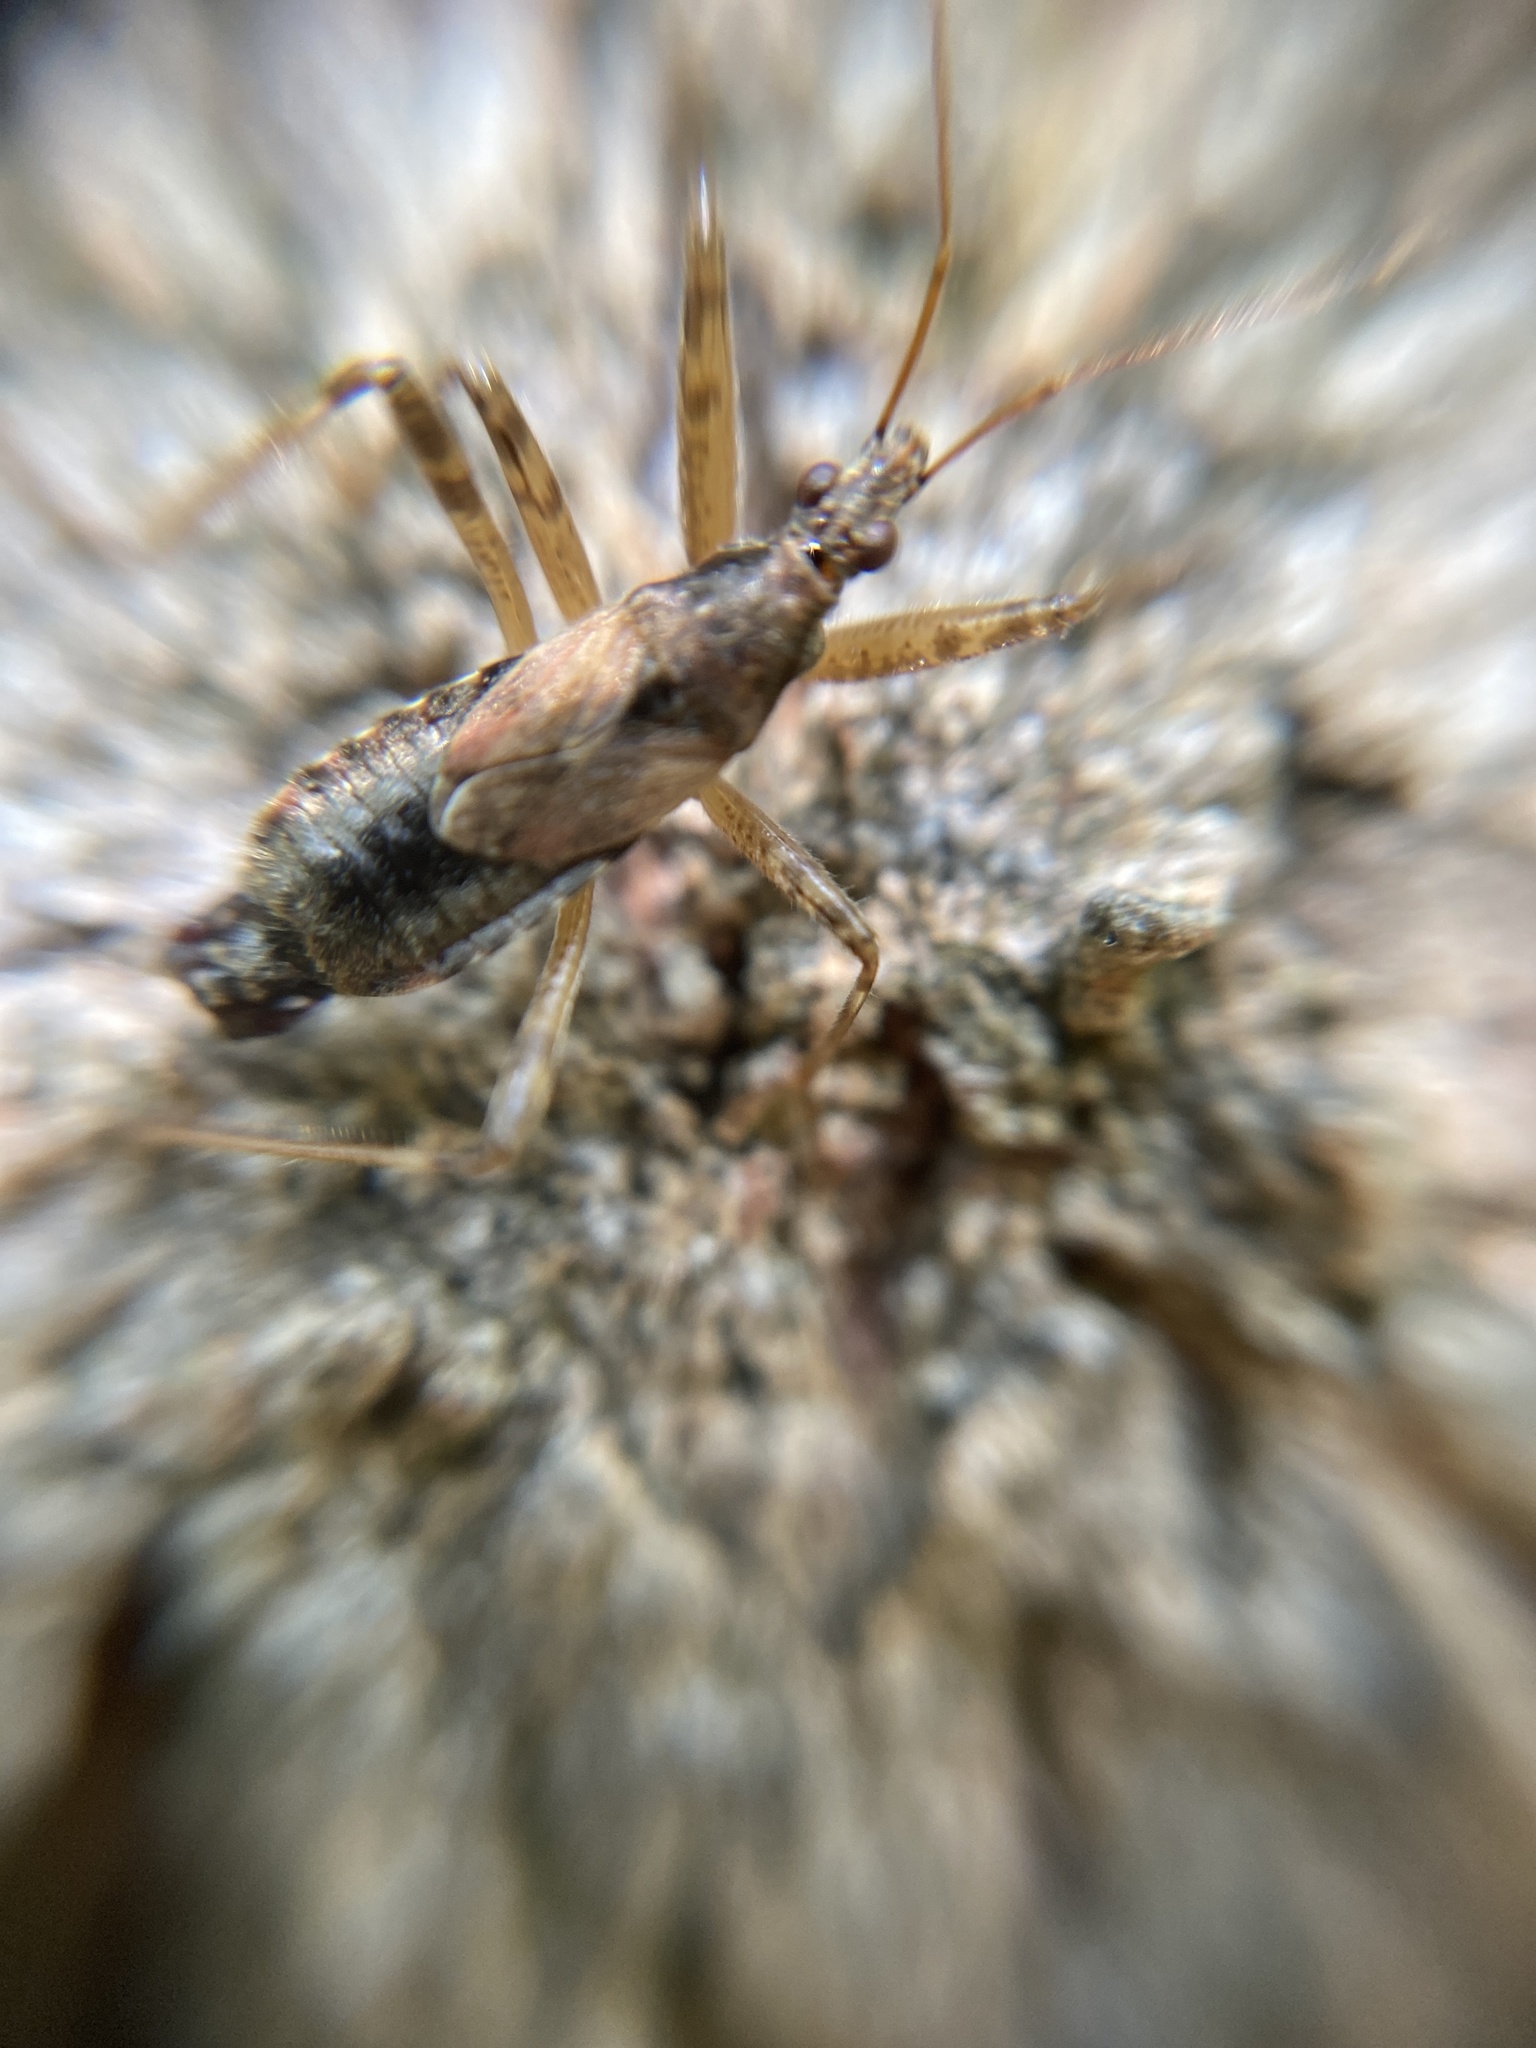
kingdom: Animalia
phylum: Arthropoda
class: Insecta
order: Hemiptera
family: Nabidae
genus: Himacerus
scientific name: Himacerus apterus
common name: Tree damsel bug
